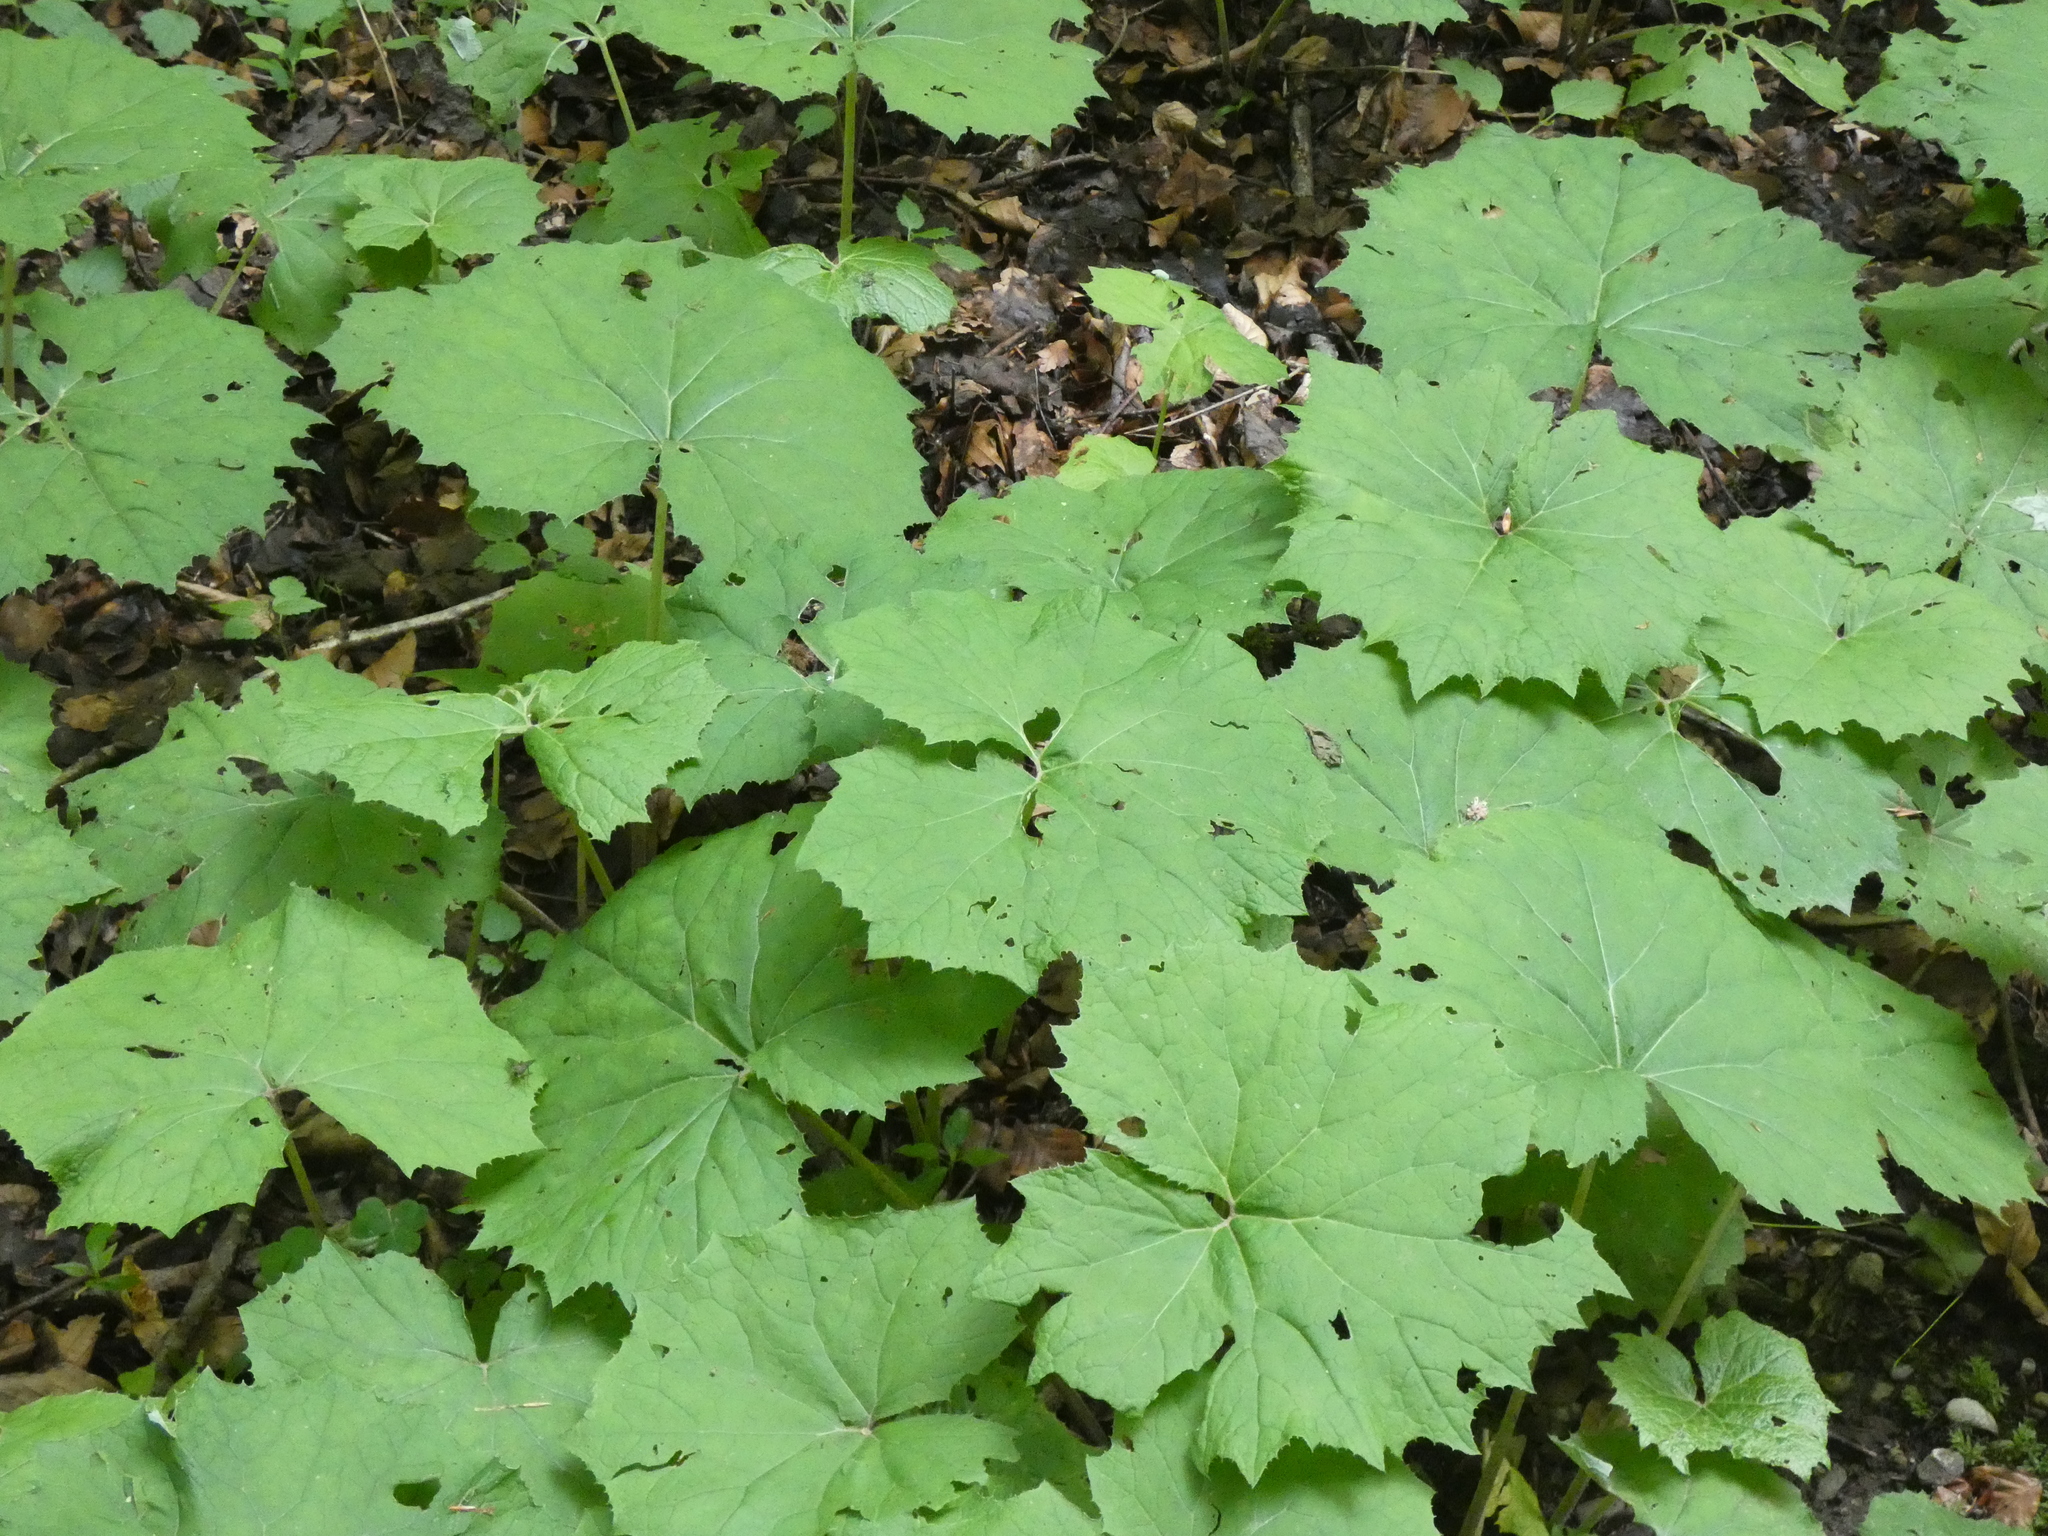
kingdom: Plantae
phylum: Tracheophyta
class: Magnoliopsida
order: Asterales
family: Asteraceae
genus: Petasites
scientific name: Petasites albus
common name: White butterbur
